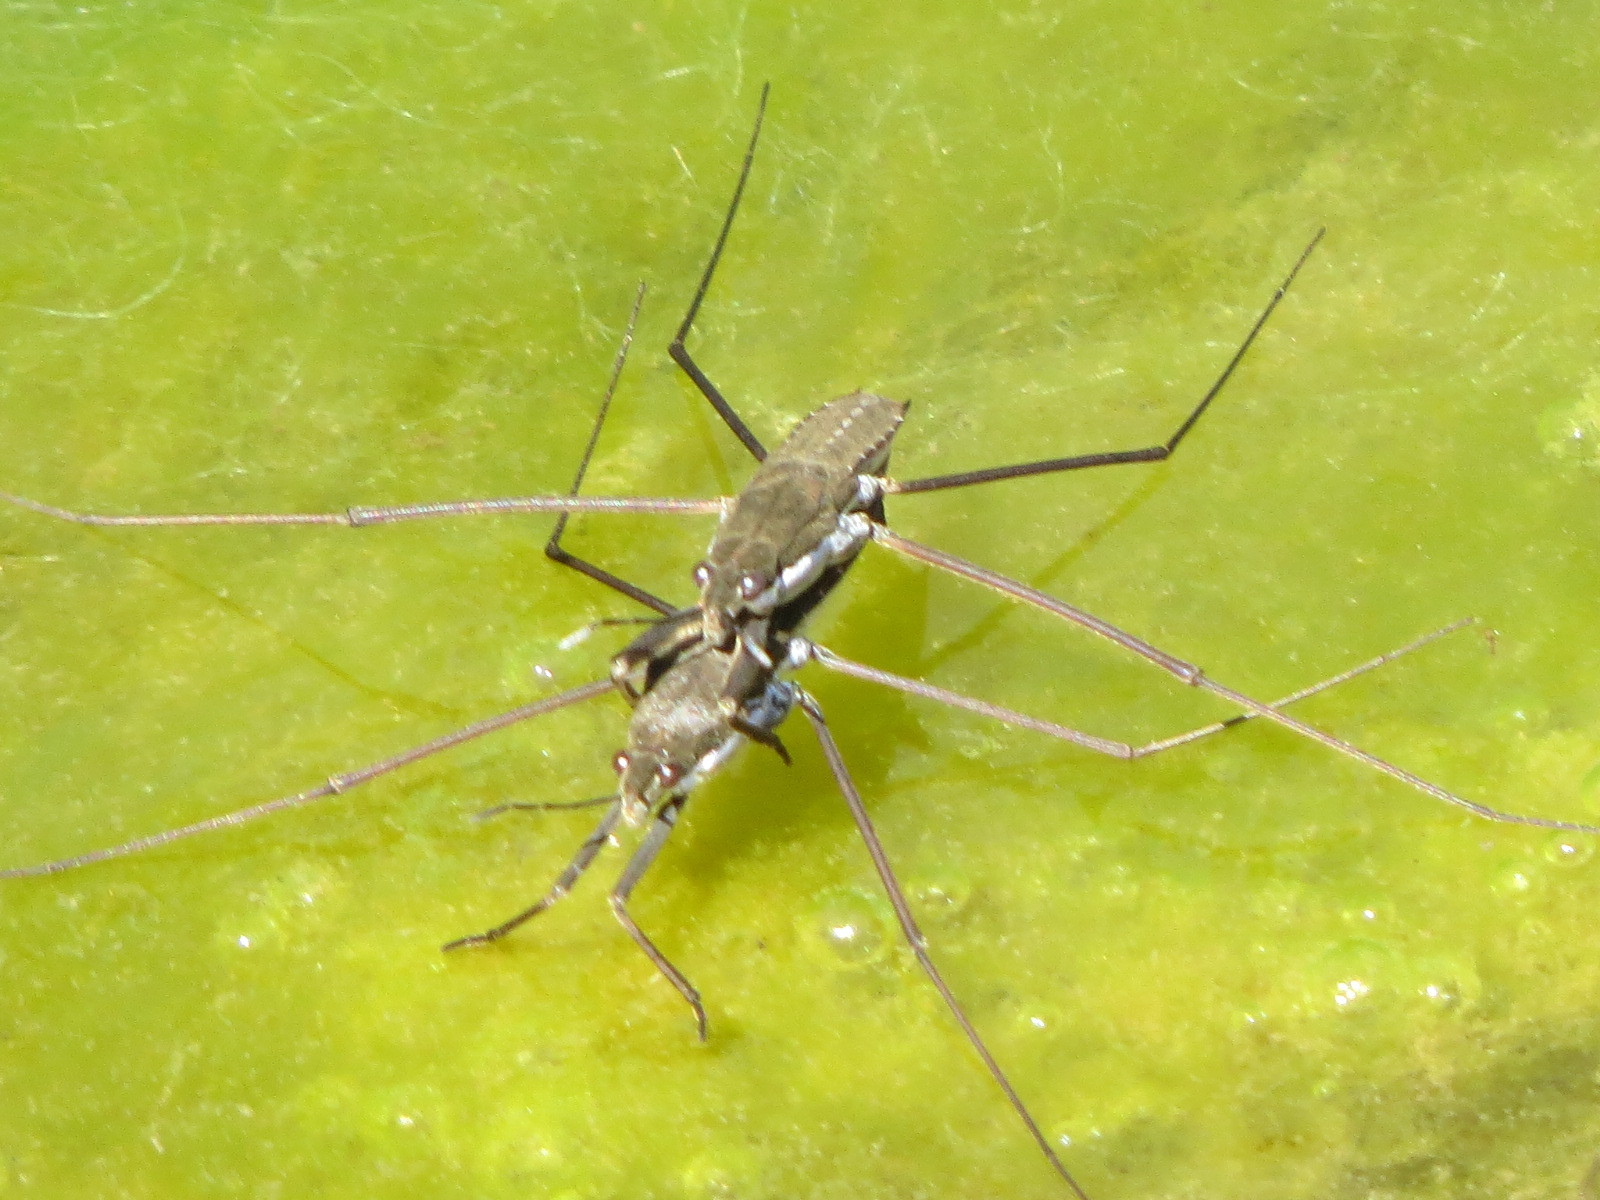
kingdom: Animalia
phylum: Arthropoda
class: Insecta
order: Hemiptera
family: Gerridae
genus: Aquarius
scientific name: Aquarius remigis
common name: Common water strider
